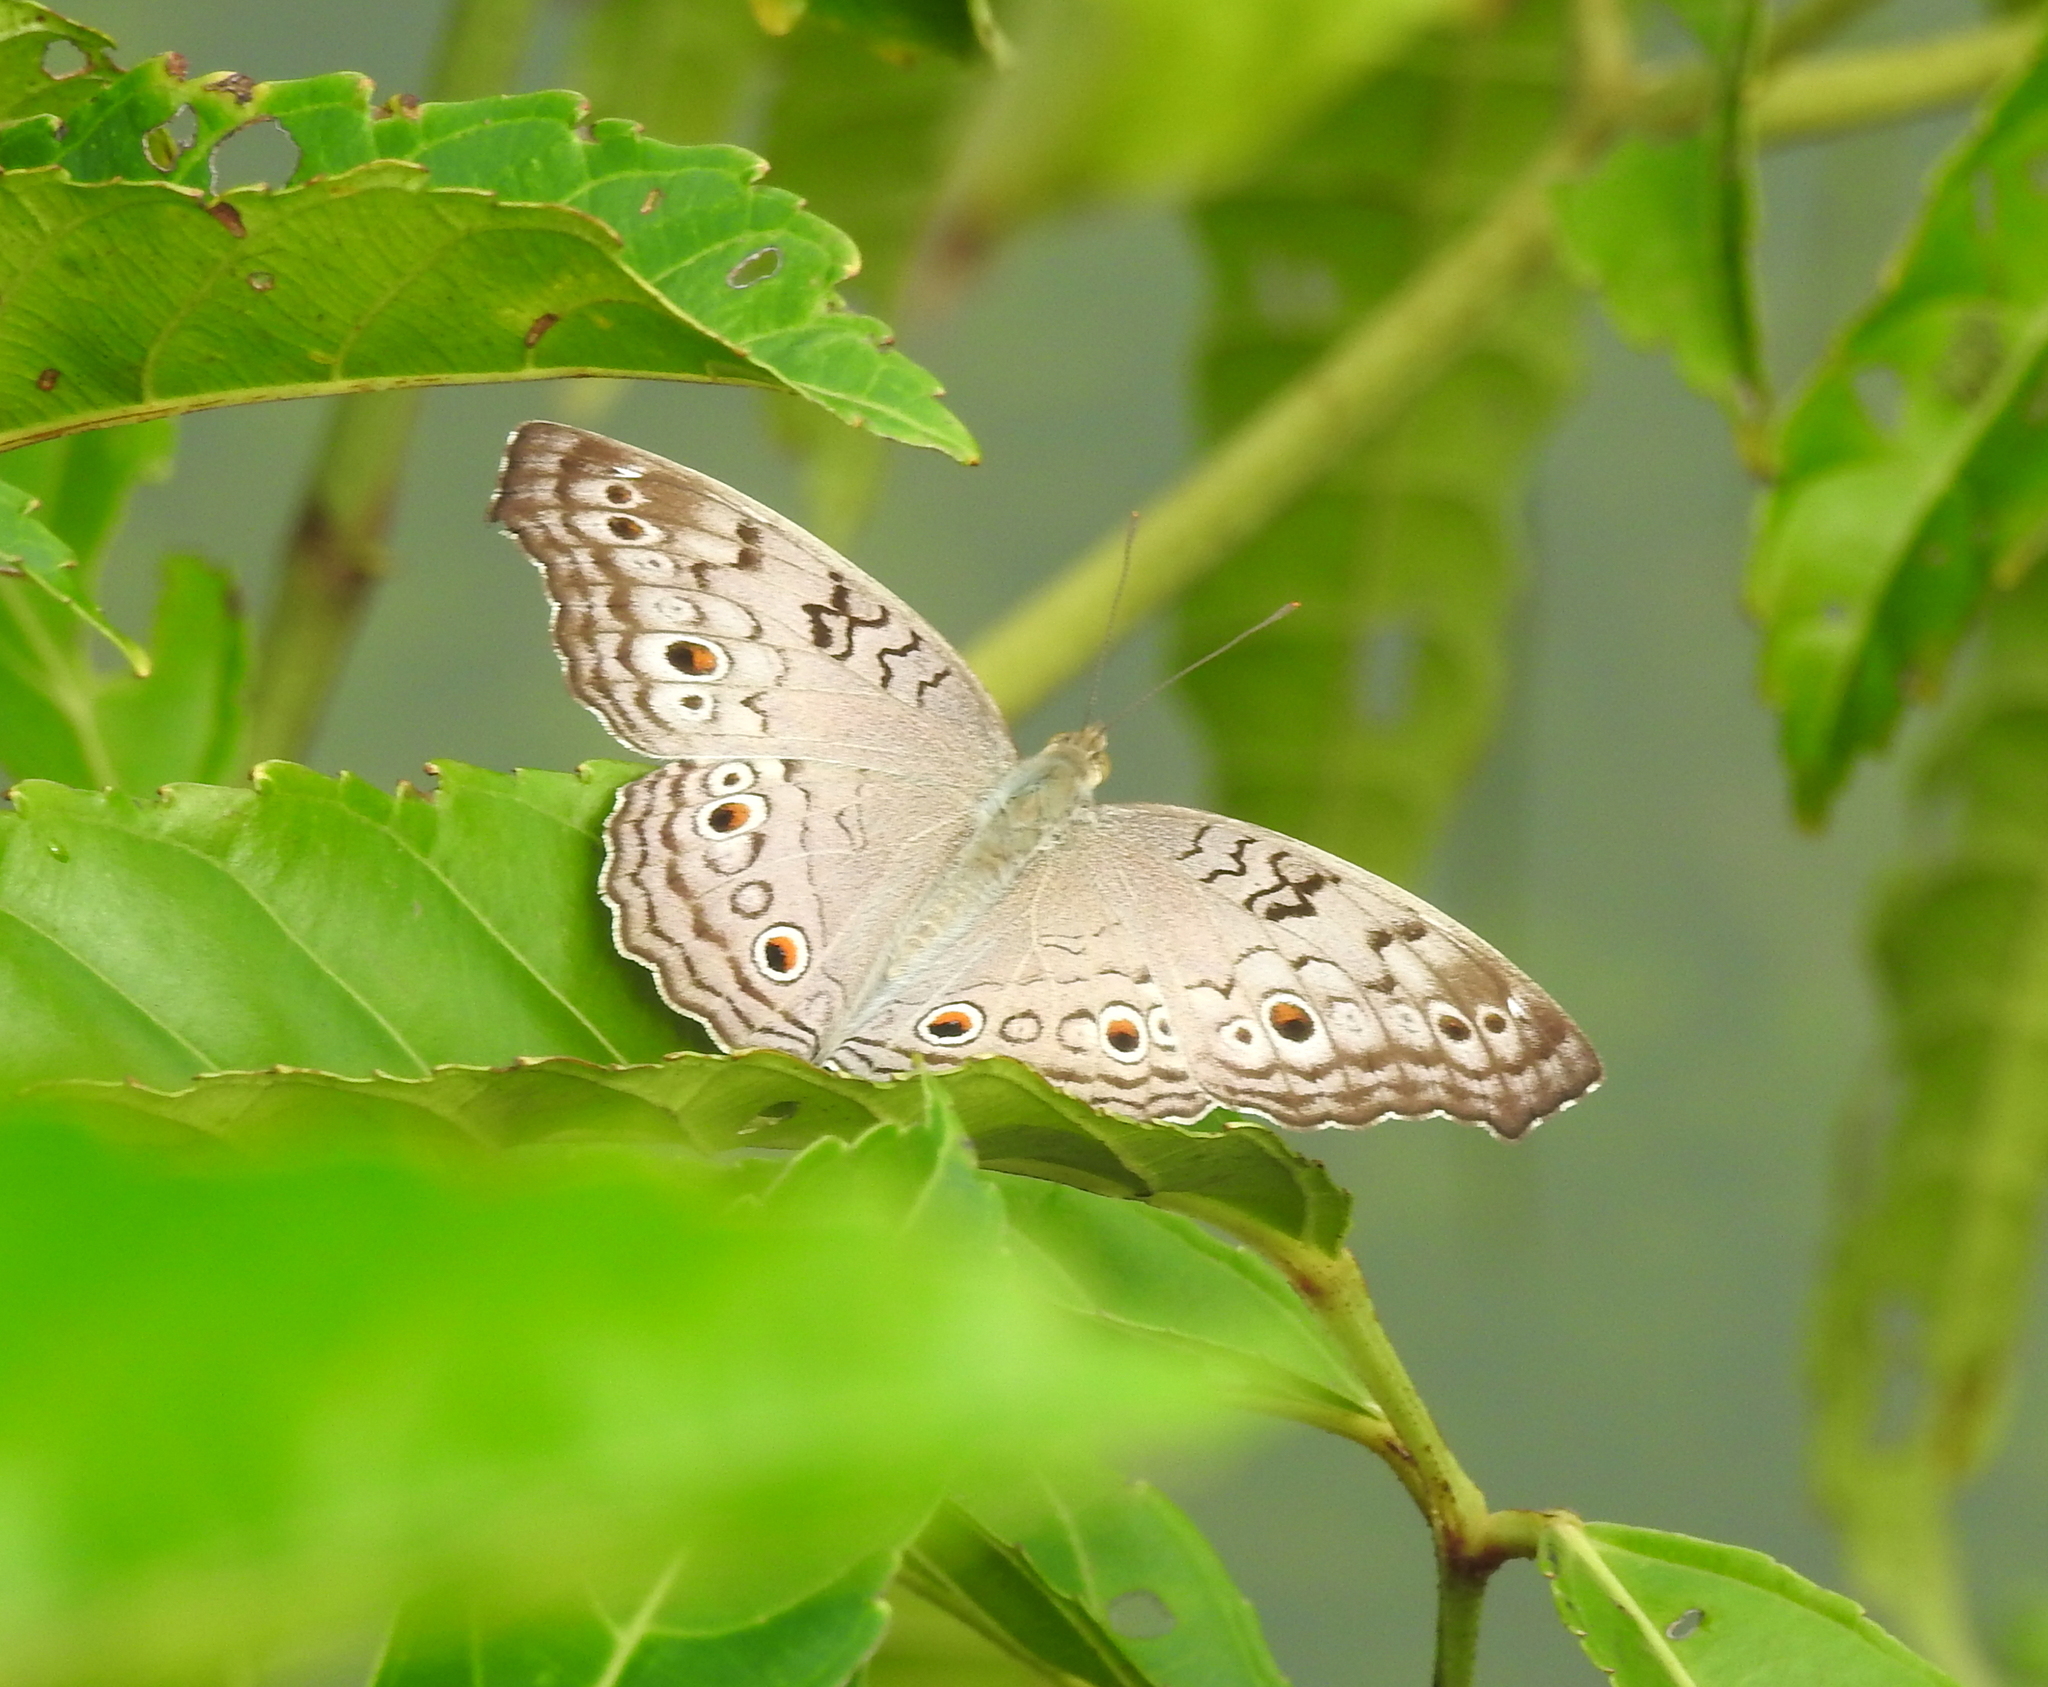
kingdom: Animalia
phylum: Arthropoda
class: Insecta
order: Lepidoptera
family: Nymphalidae
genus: Junonia
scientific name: Junonia atlites
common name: Grey pansy
